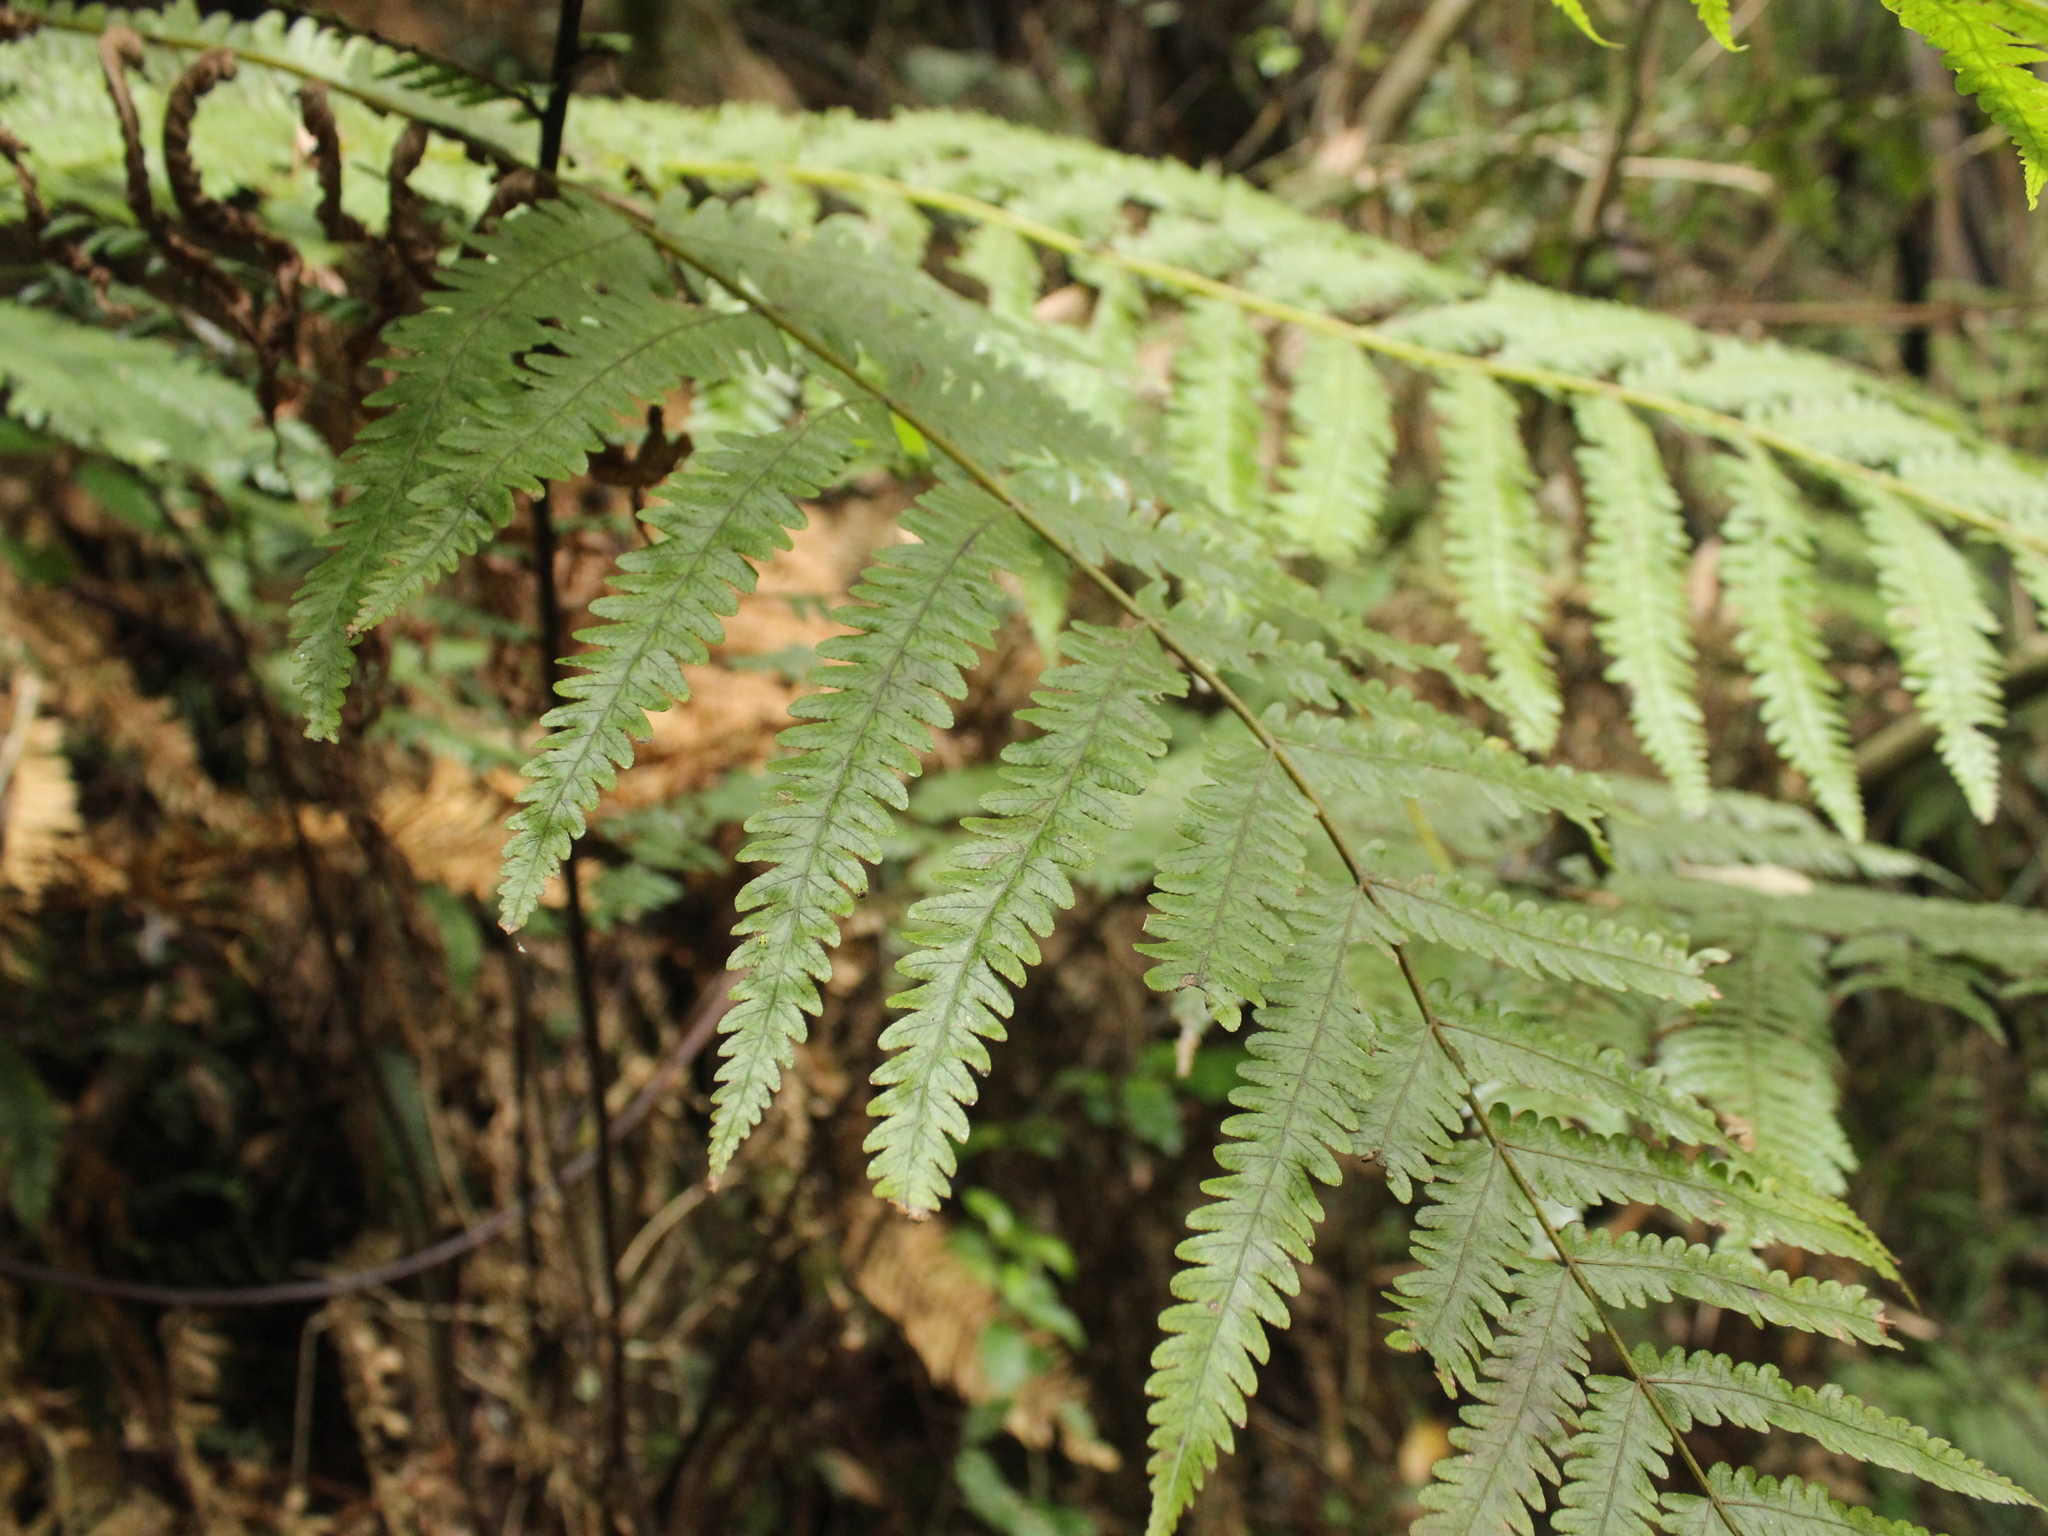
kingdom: Plantae
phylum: Tracheophyta
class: Polypodiopsida
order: Polypodiales
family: Thelypteridaceae
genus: Pakau
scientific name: Pakau pennigera
